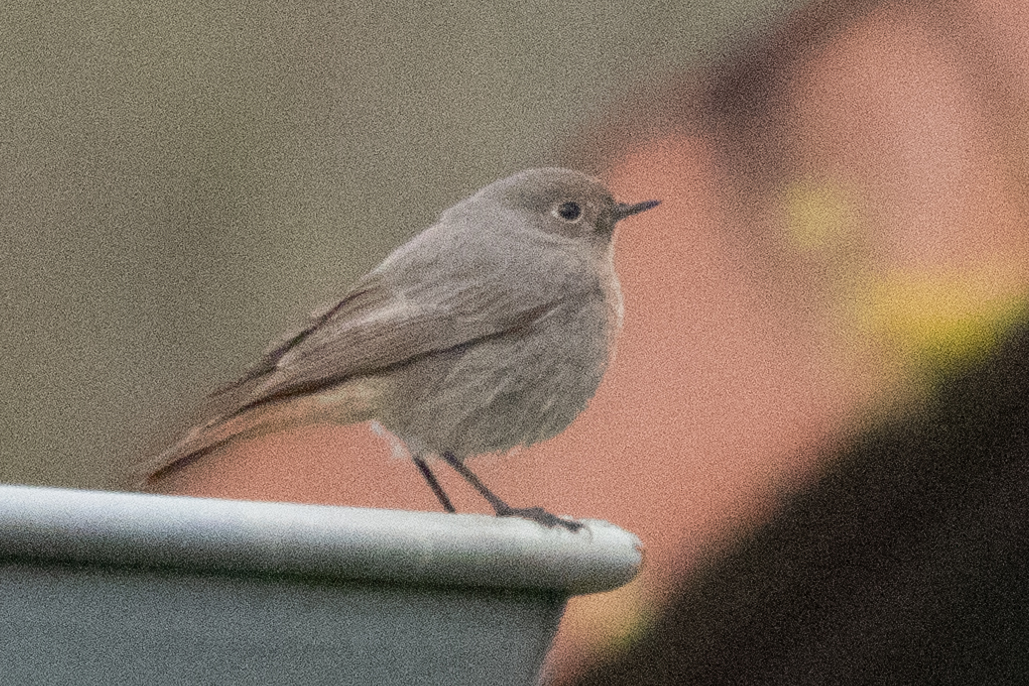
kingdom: Animalia
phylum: Chordata
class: Aves
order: Passeriformes
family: Muscicapidae
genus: Phoenicurus
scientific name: Phoenicurus ochruros
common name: Black redstart
